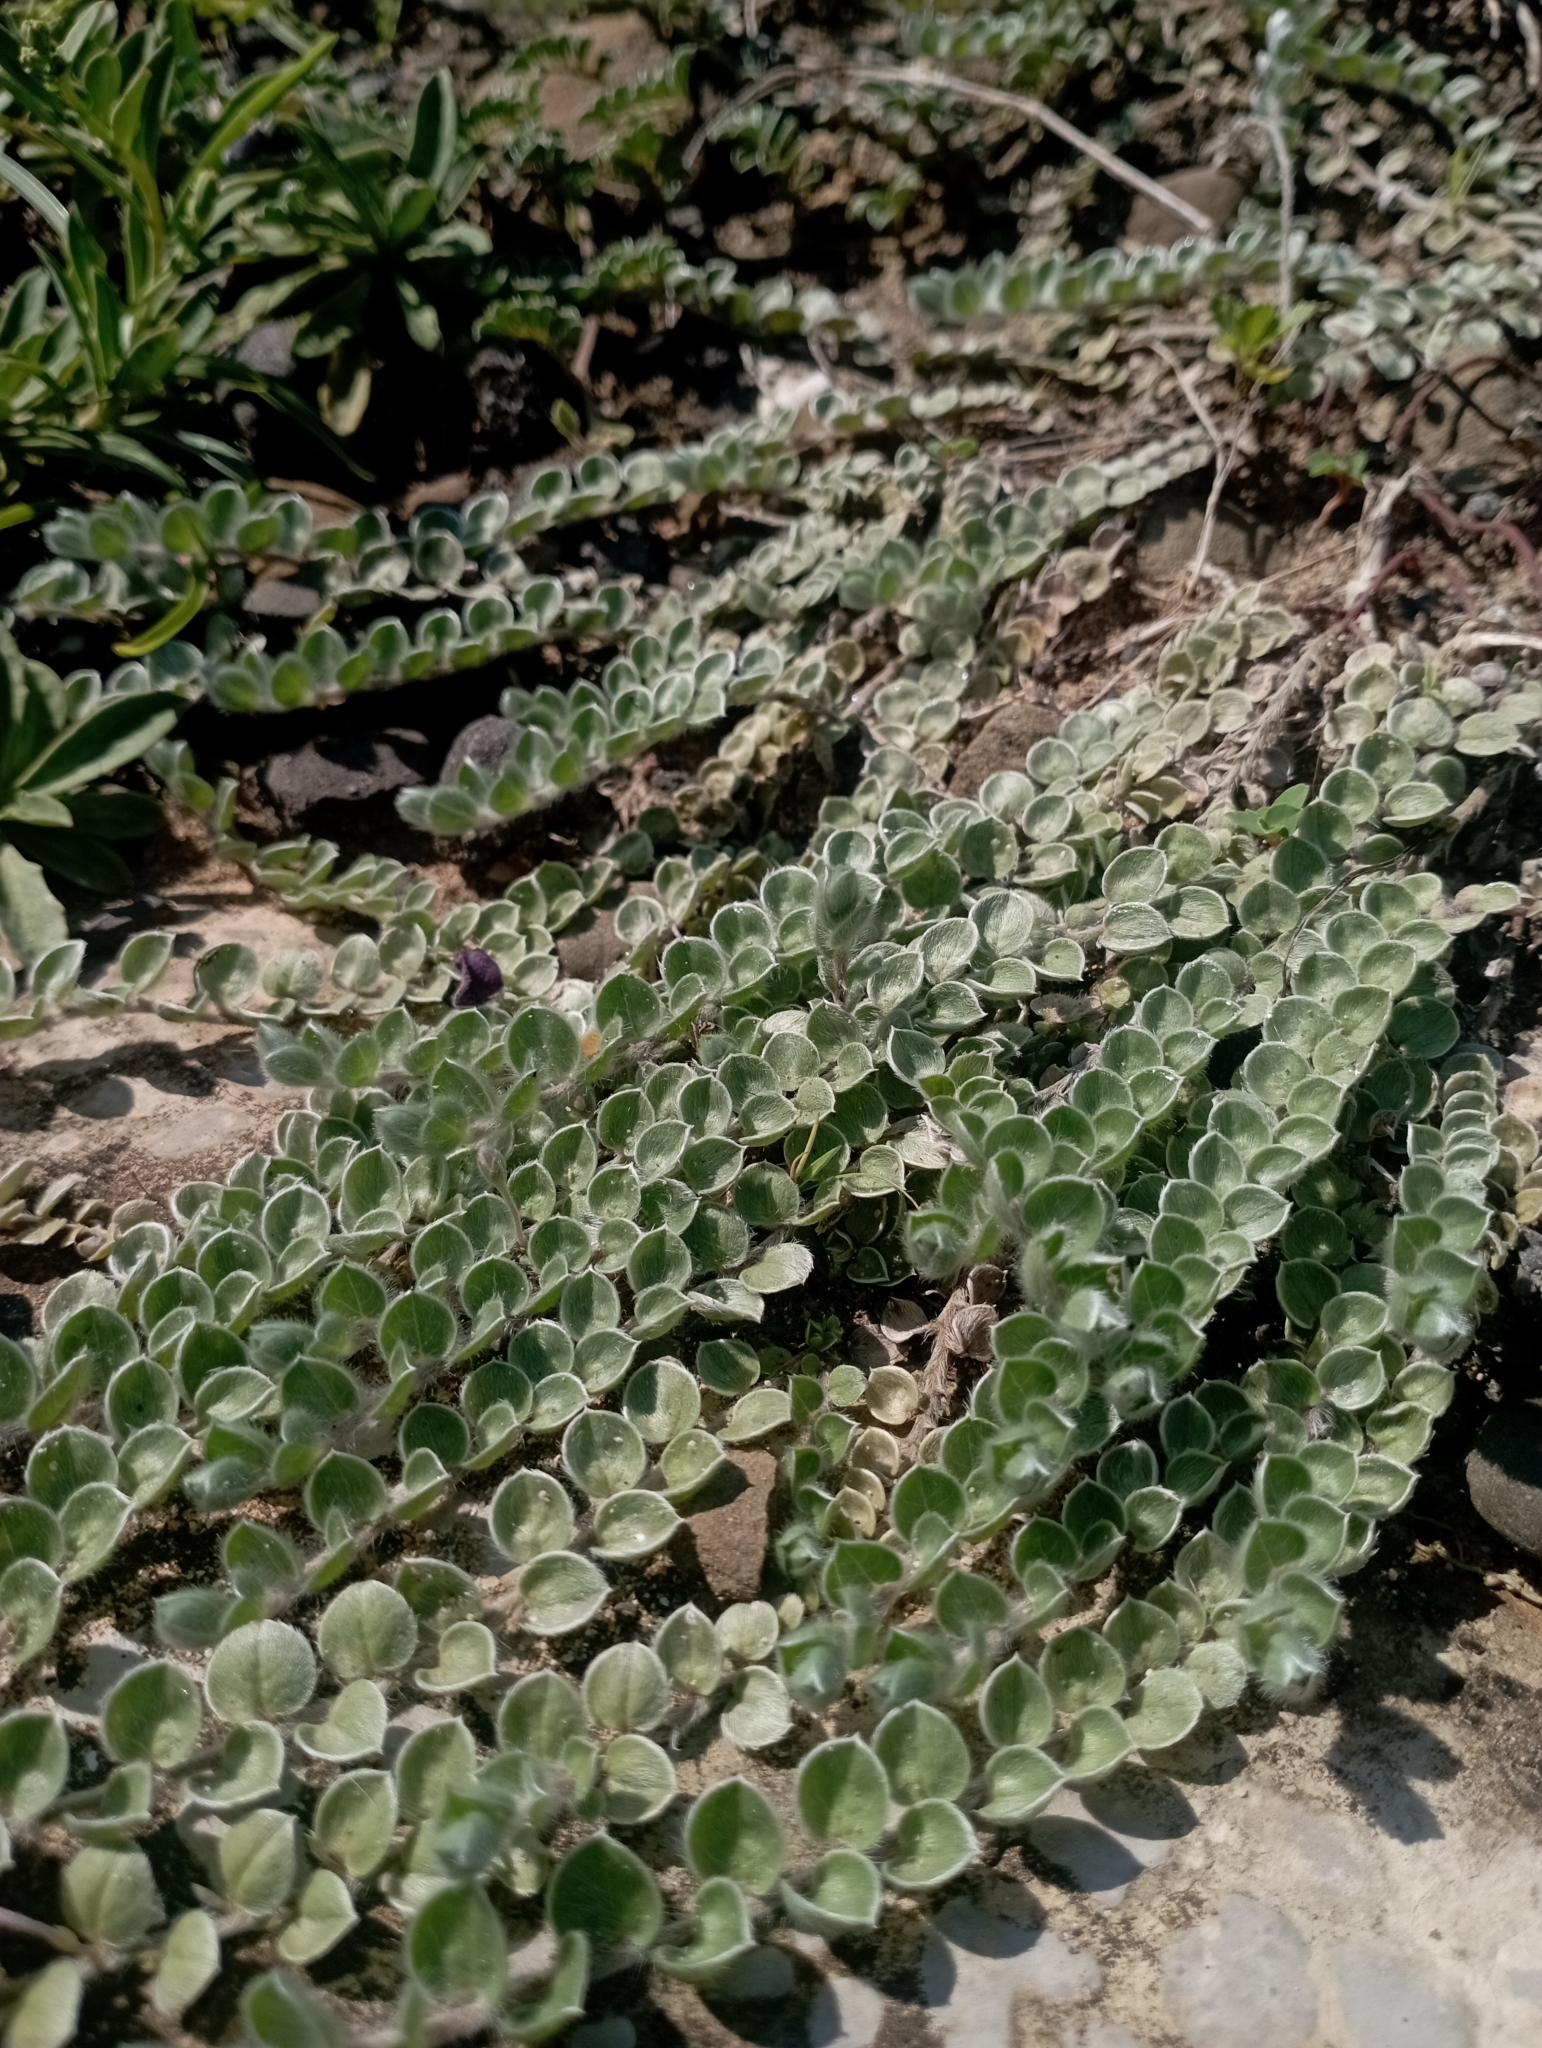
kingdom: Plantae
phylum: Tracheophyta
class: Magnoliopsida
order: Solanales
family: Convolvulaceae
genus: Evolvulus
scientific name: Evolvulus alsinoides
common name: Slender dwarf morning-glory
